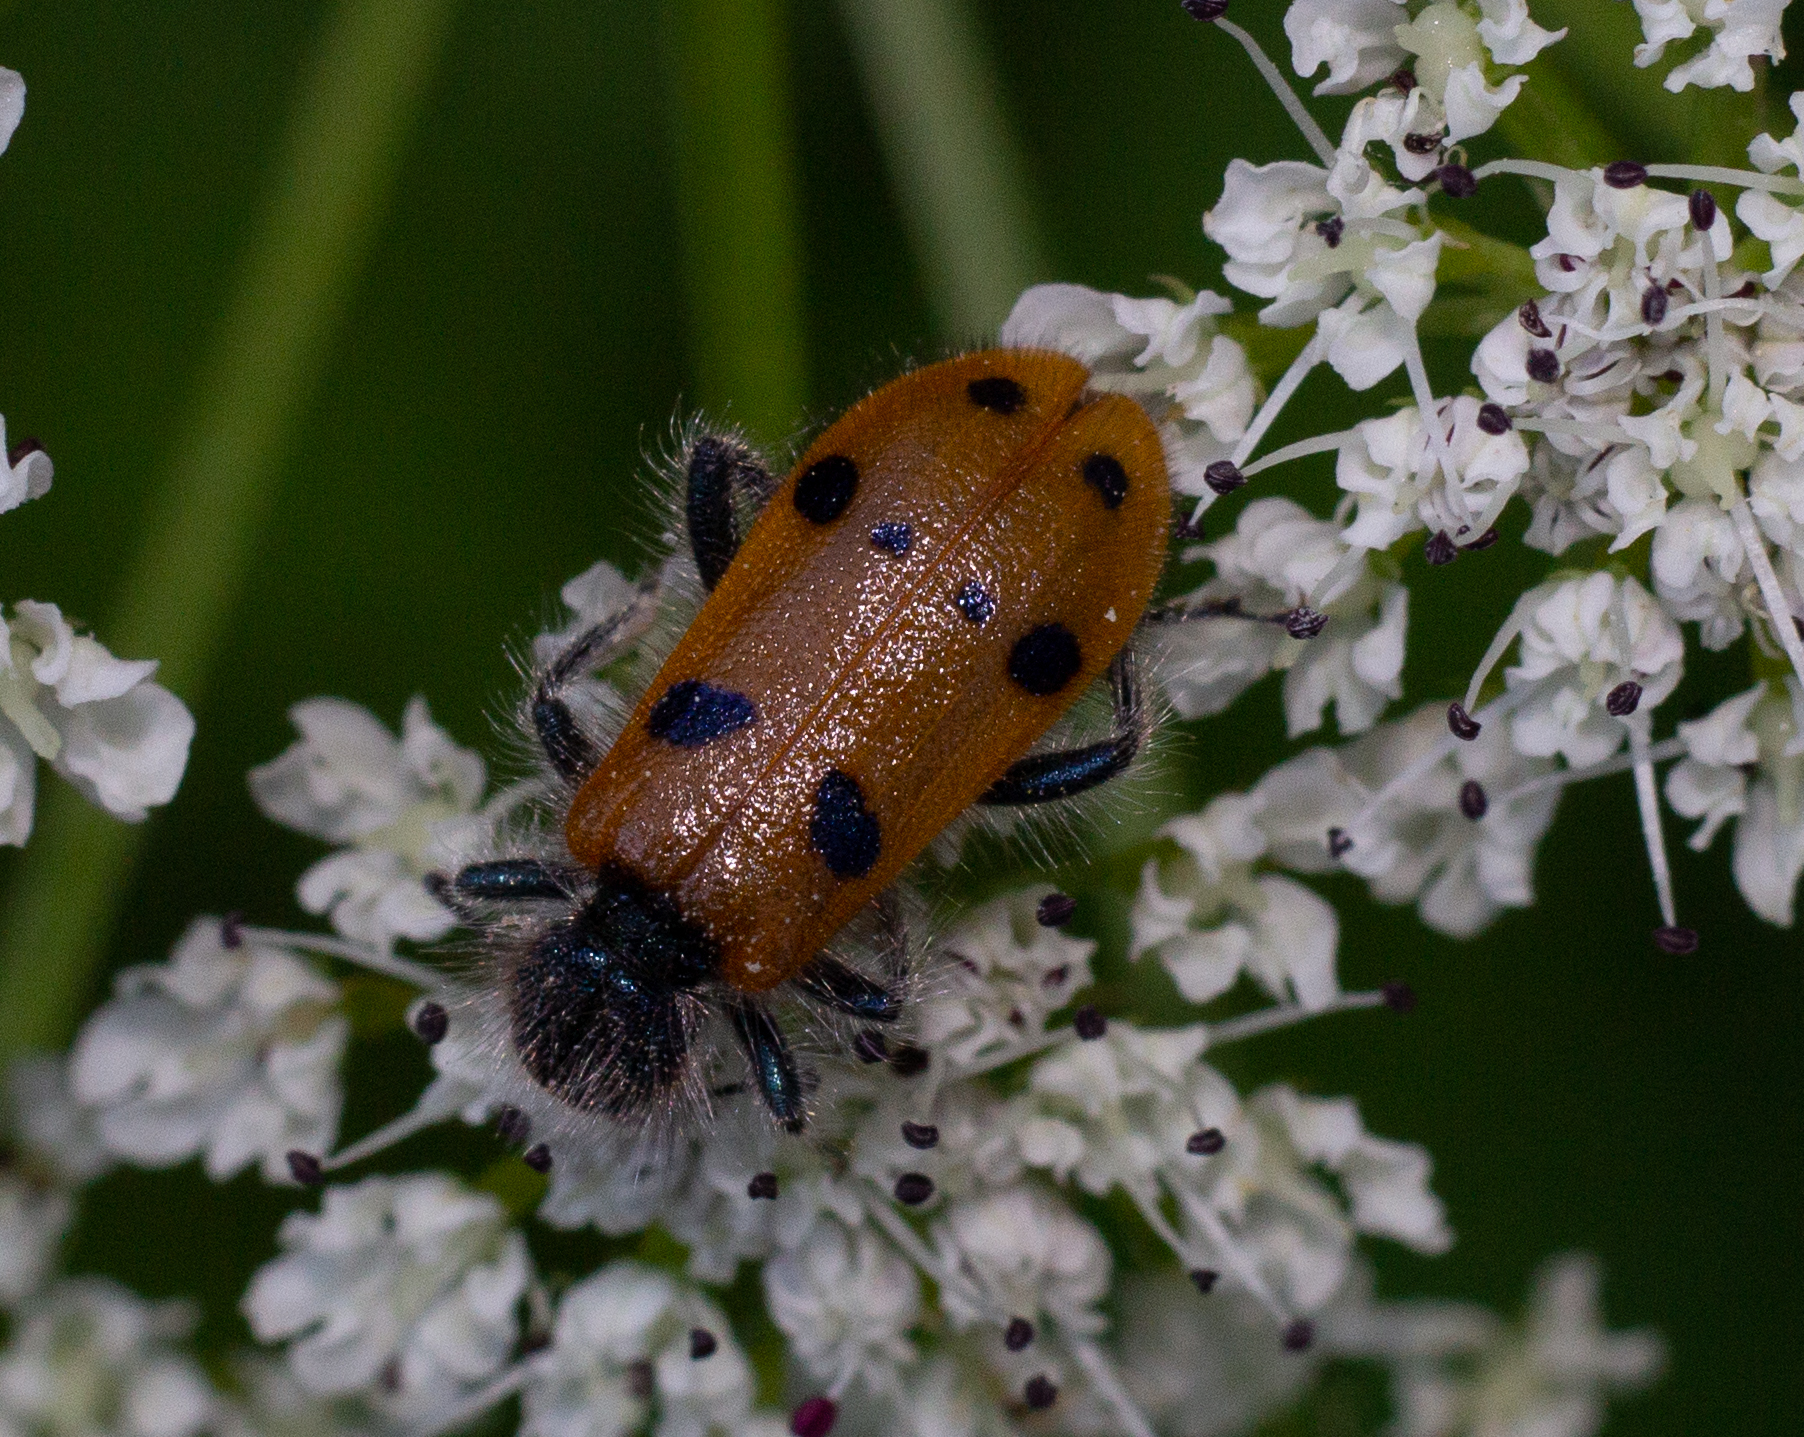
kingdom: Animalia
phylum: Arthropoda
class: Insecta
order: Coleoptera
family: Cleridae
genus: Trichodes
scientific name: Trichodes octopunctatus
